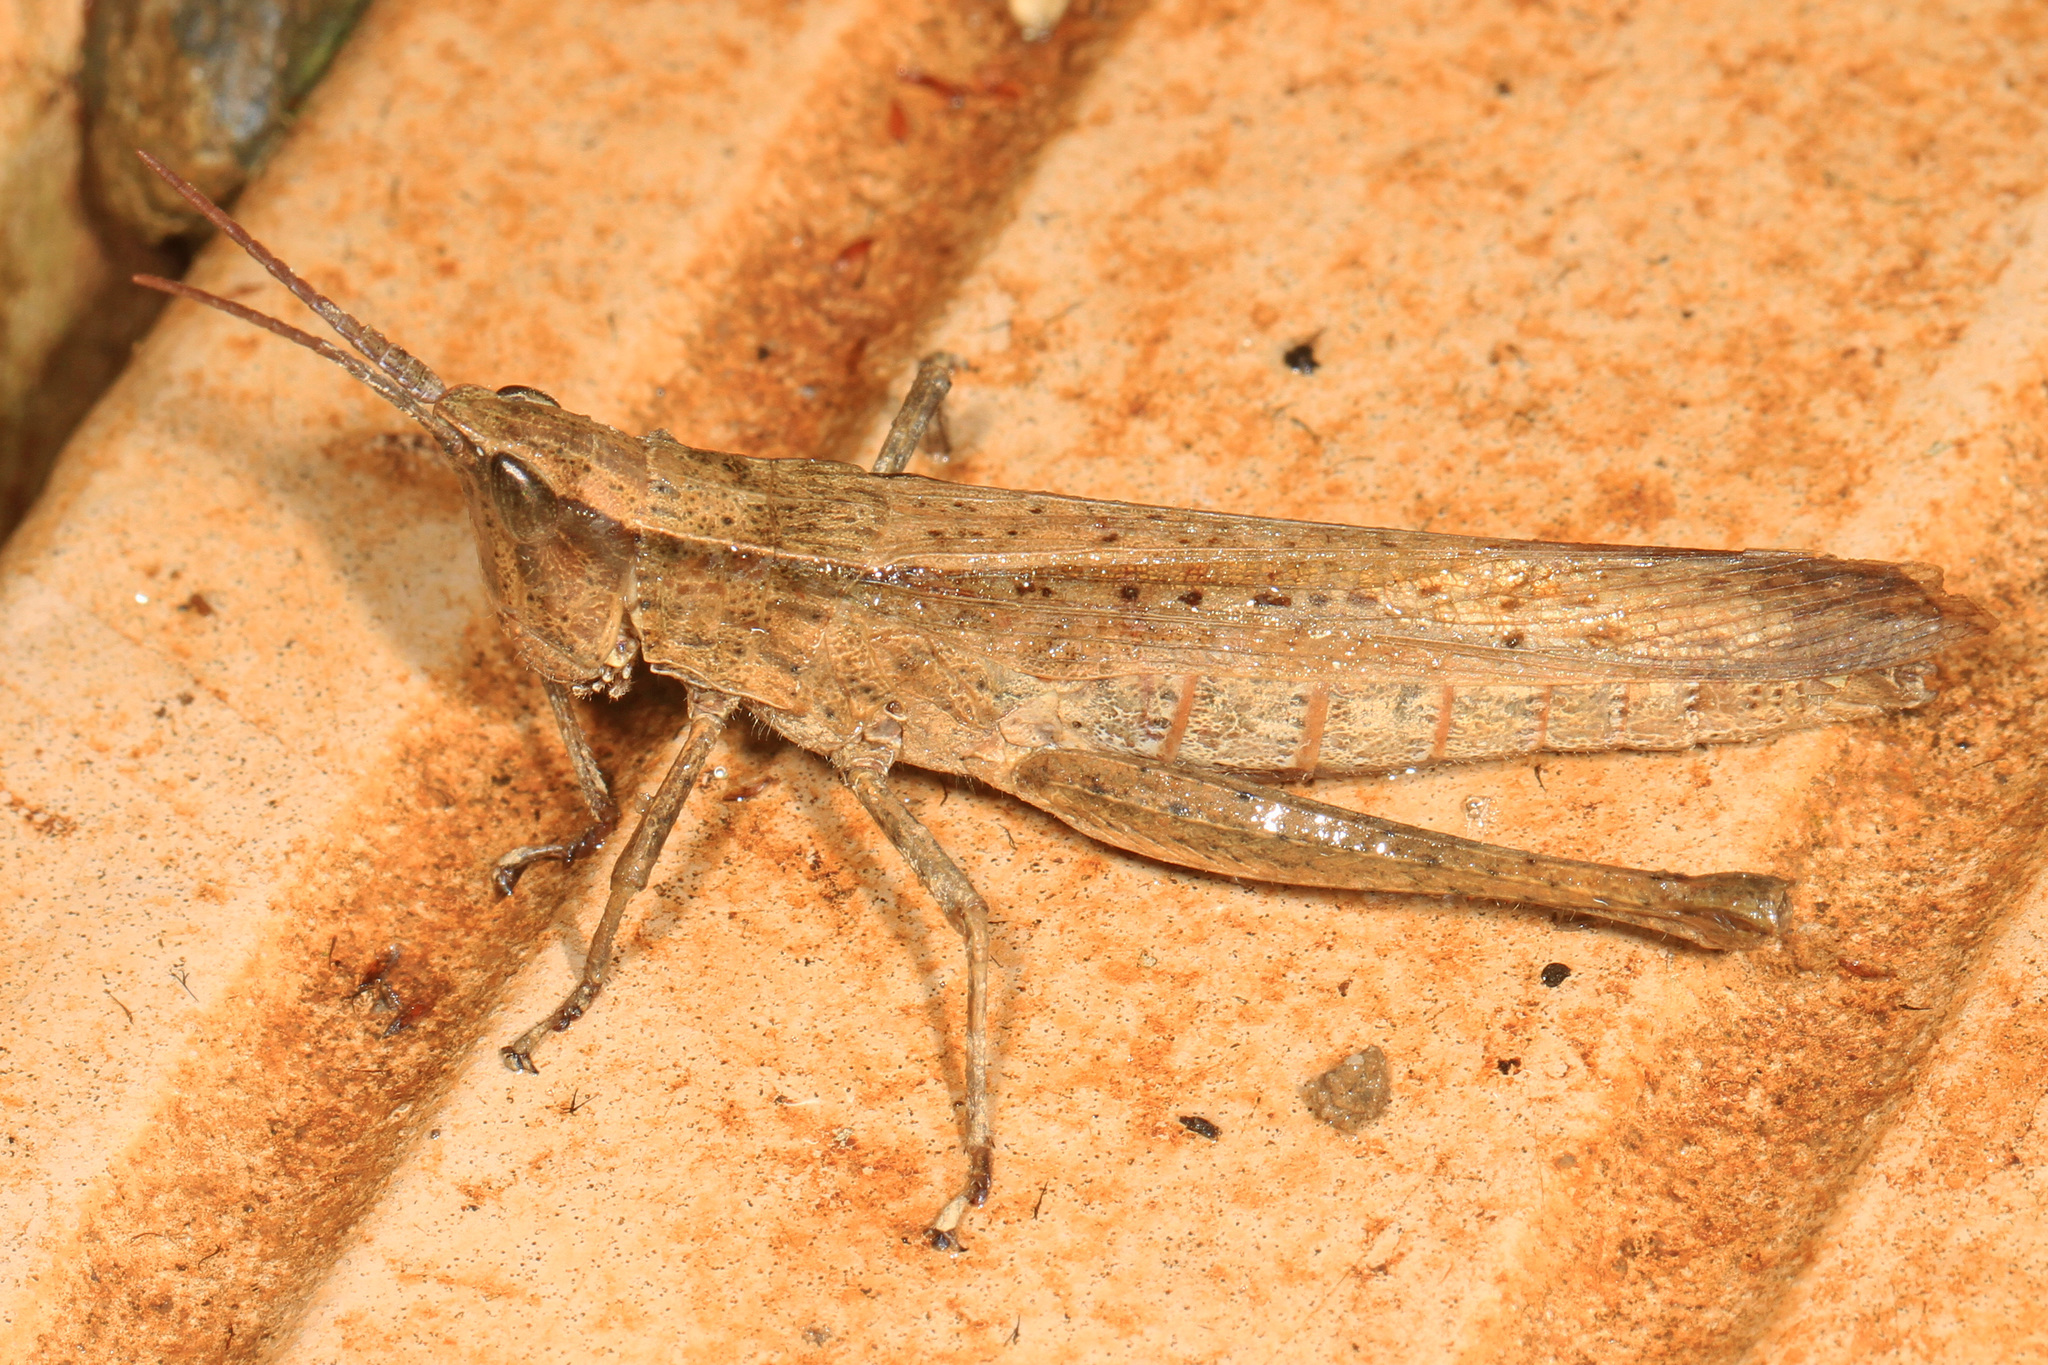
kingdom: Animalia
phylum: Arthropoda
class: Insecta
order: Orthoptera
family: Acrididae
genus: Metaleptea
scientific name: Metaleptea brevicornis
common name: Clipped-wing grasshopper
